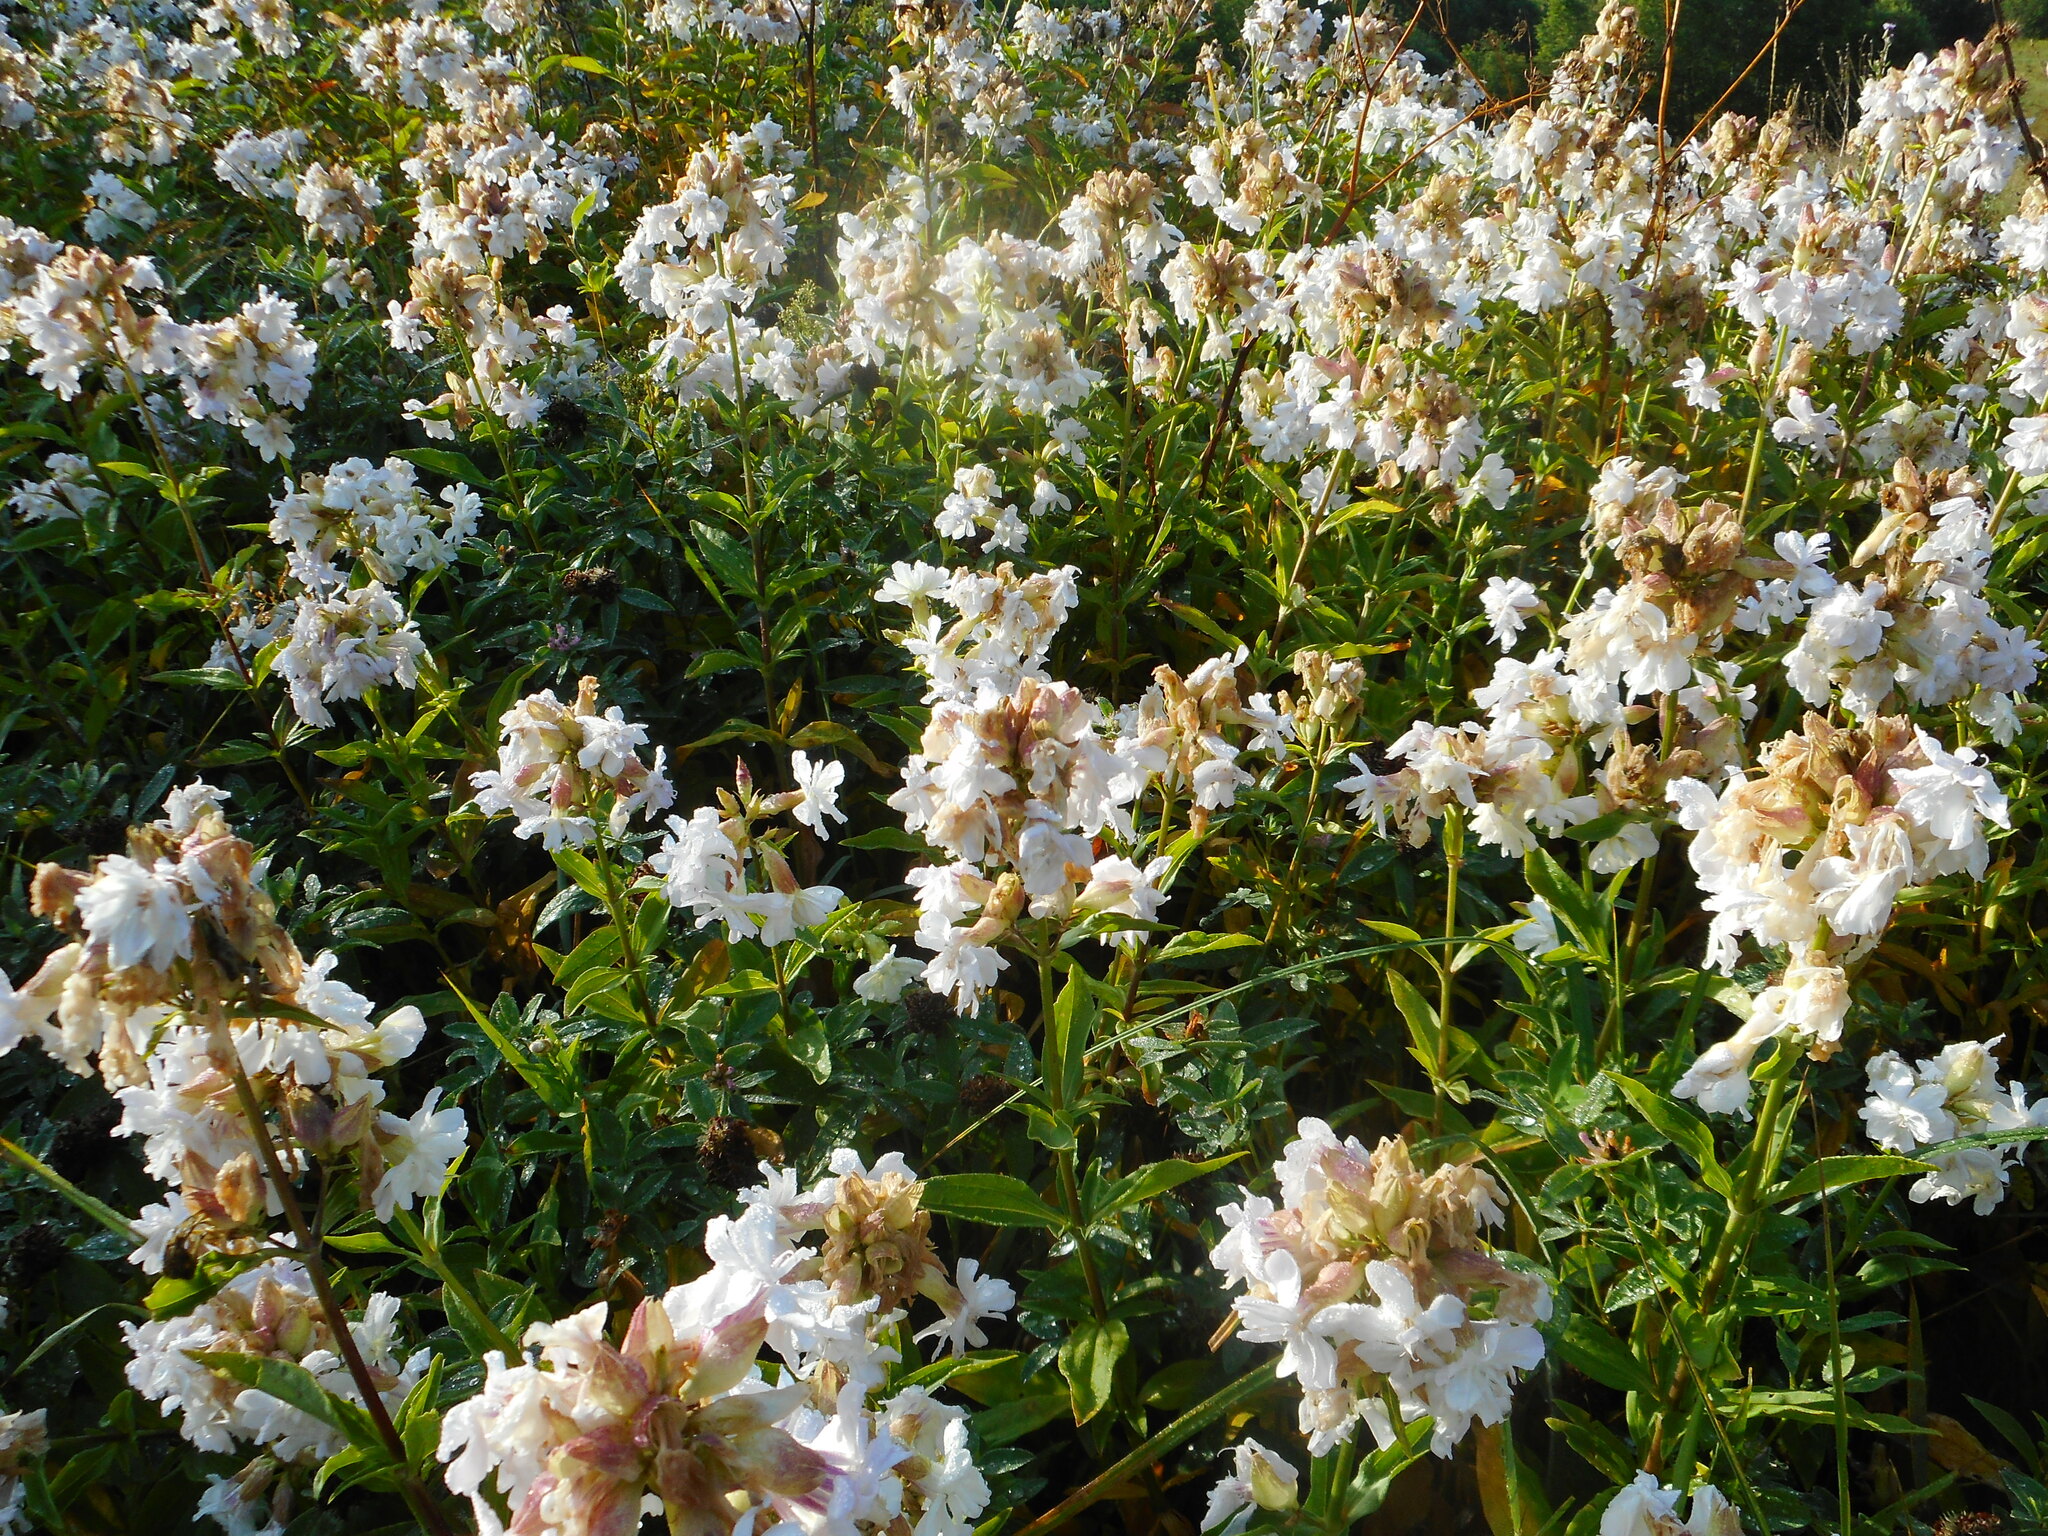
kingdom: Plantae
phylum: Tracheophyta
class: Magnoliopsida
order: Caryophyllales
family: Caryophyllaceae
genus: Saponaria
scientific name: Saponaria officinalis
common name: Soapwort
